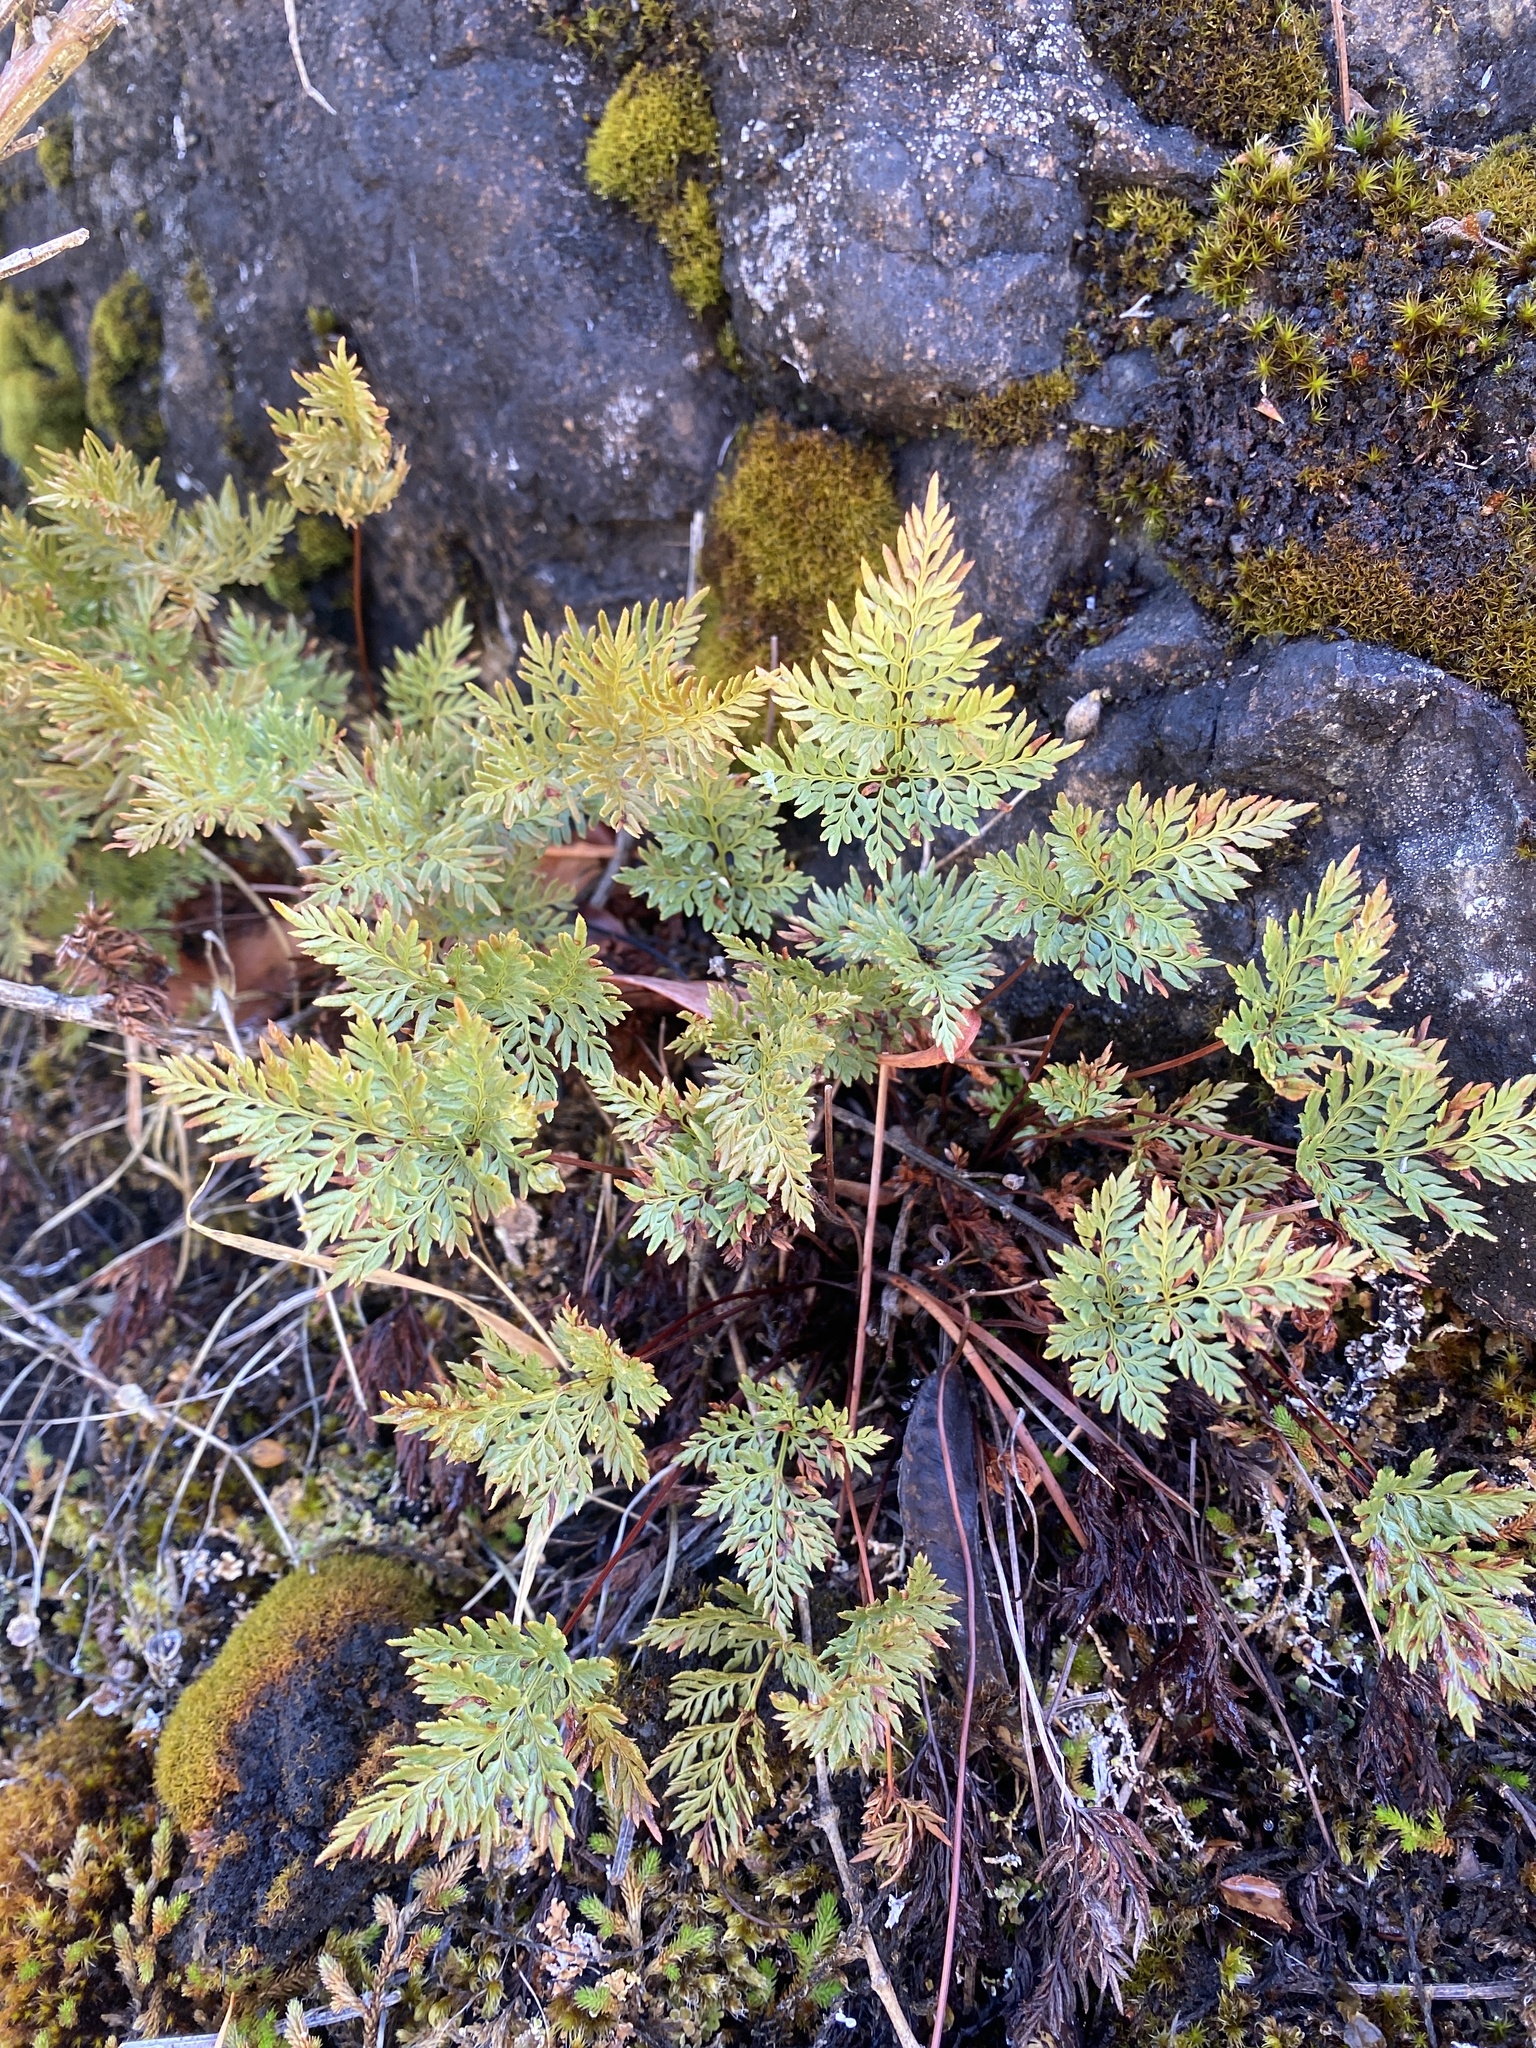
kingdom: Plantae
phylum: Tracheophyta
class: Polypodiopsida
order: Polypodiales
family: Pteridaceae
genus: Aspidotis
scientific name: Aspidotis densa
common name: Indian's dream
